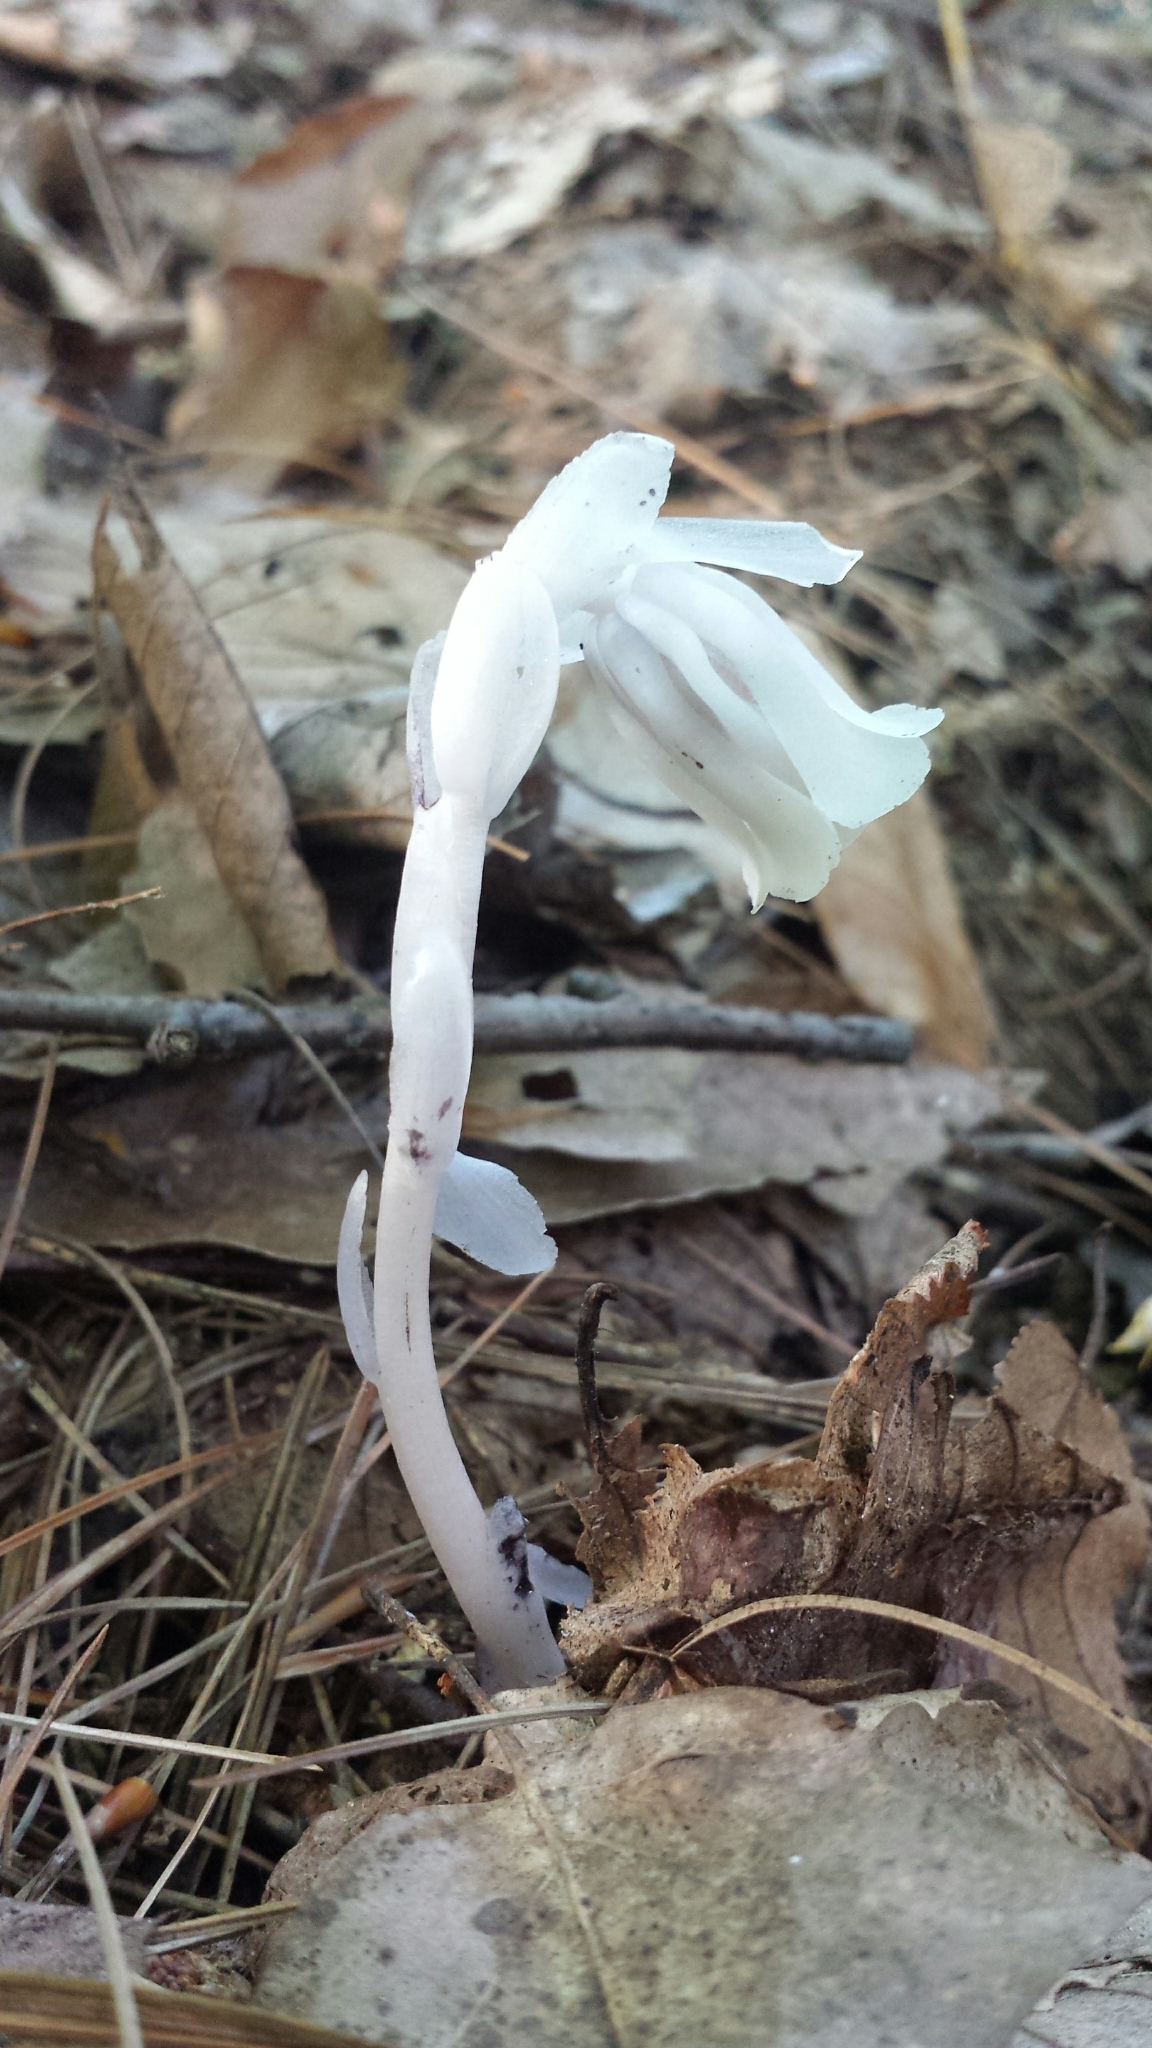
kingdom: Plantae
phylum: Tracheophyta
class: Magnoliopsida
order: Ericales
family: Ericaceae
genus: Monotropa
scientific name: Monotropa uniflora
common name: Convulsion root
